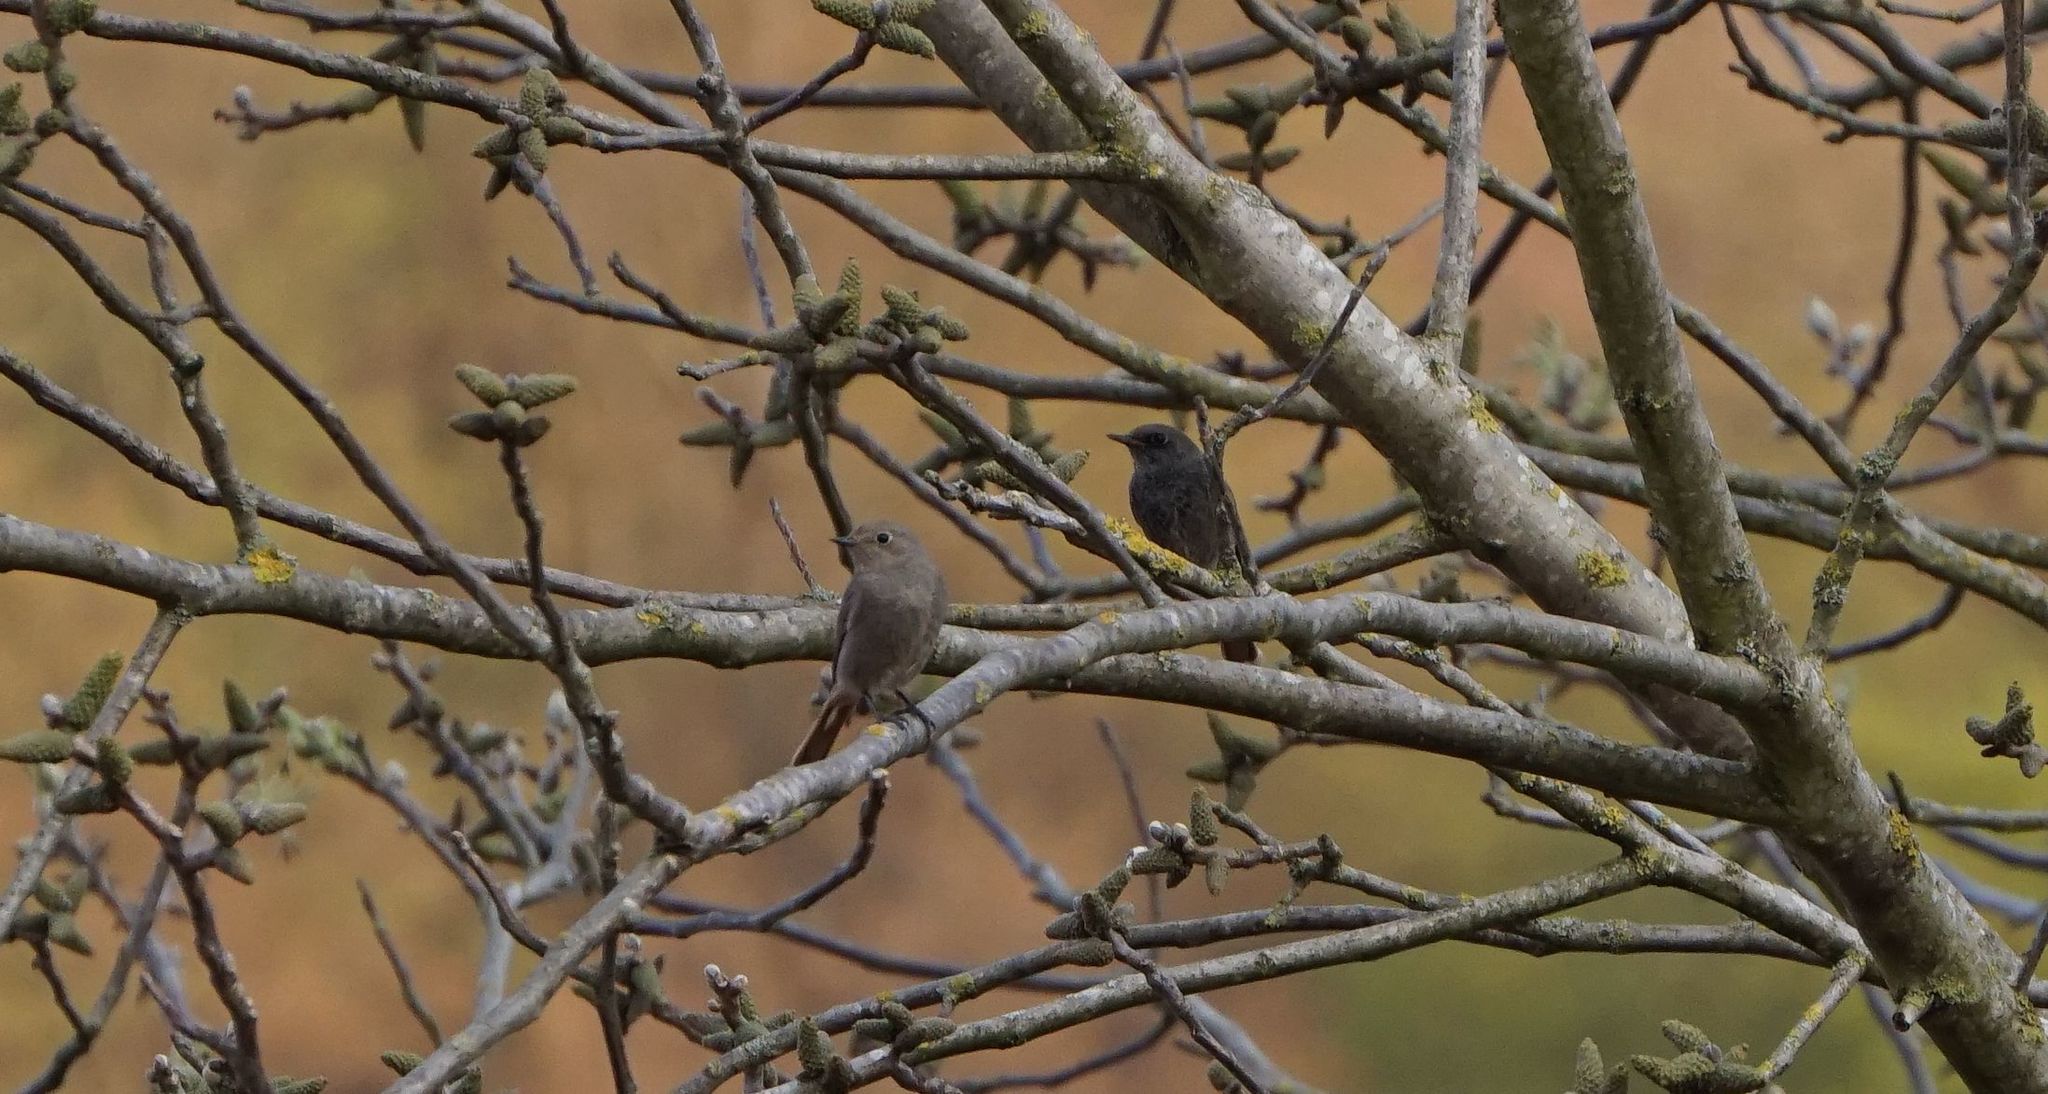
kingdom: Animalia
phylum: Chordata
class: Aves
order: Passeriformes
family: Muscicapidae
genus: Phoenicurus
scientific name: Phoenicurus ochruros
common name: Black redstart
